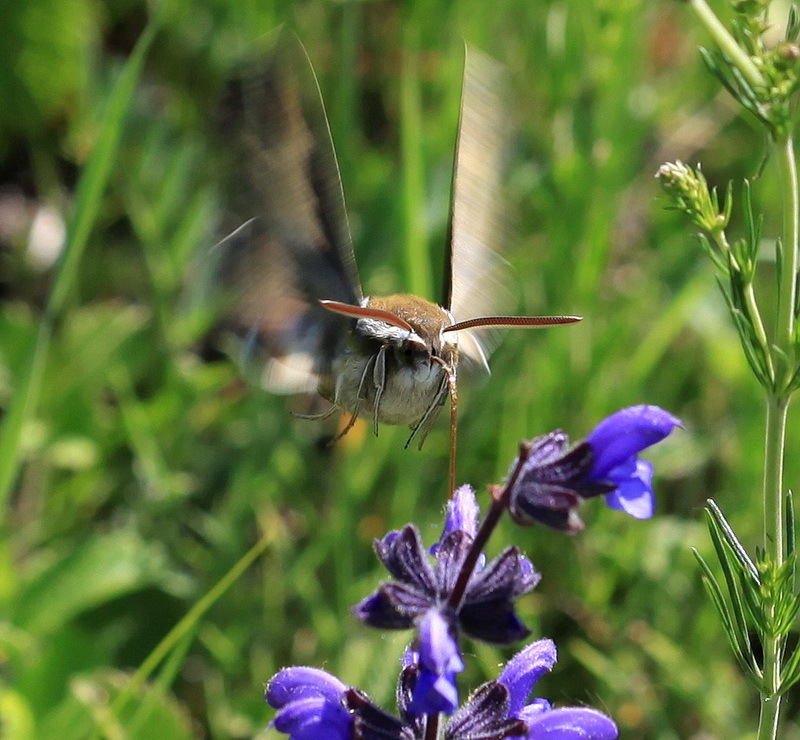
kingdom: Animalia
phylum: Arthropoda
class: Insecta
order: Lepidoptera
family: Sphingidae
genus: Hyles
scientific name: Hyles gallii
